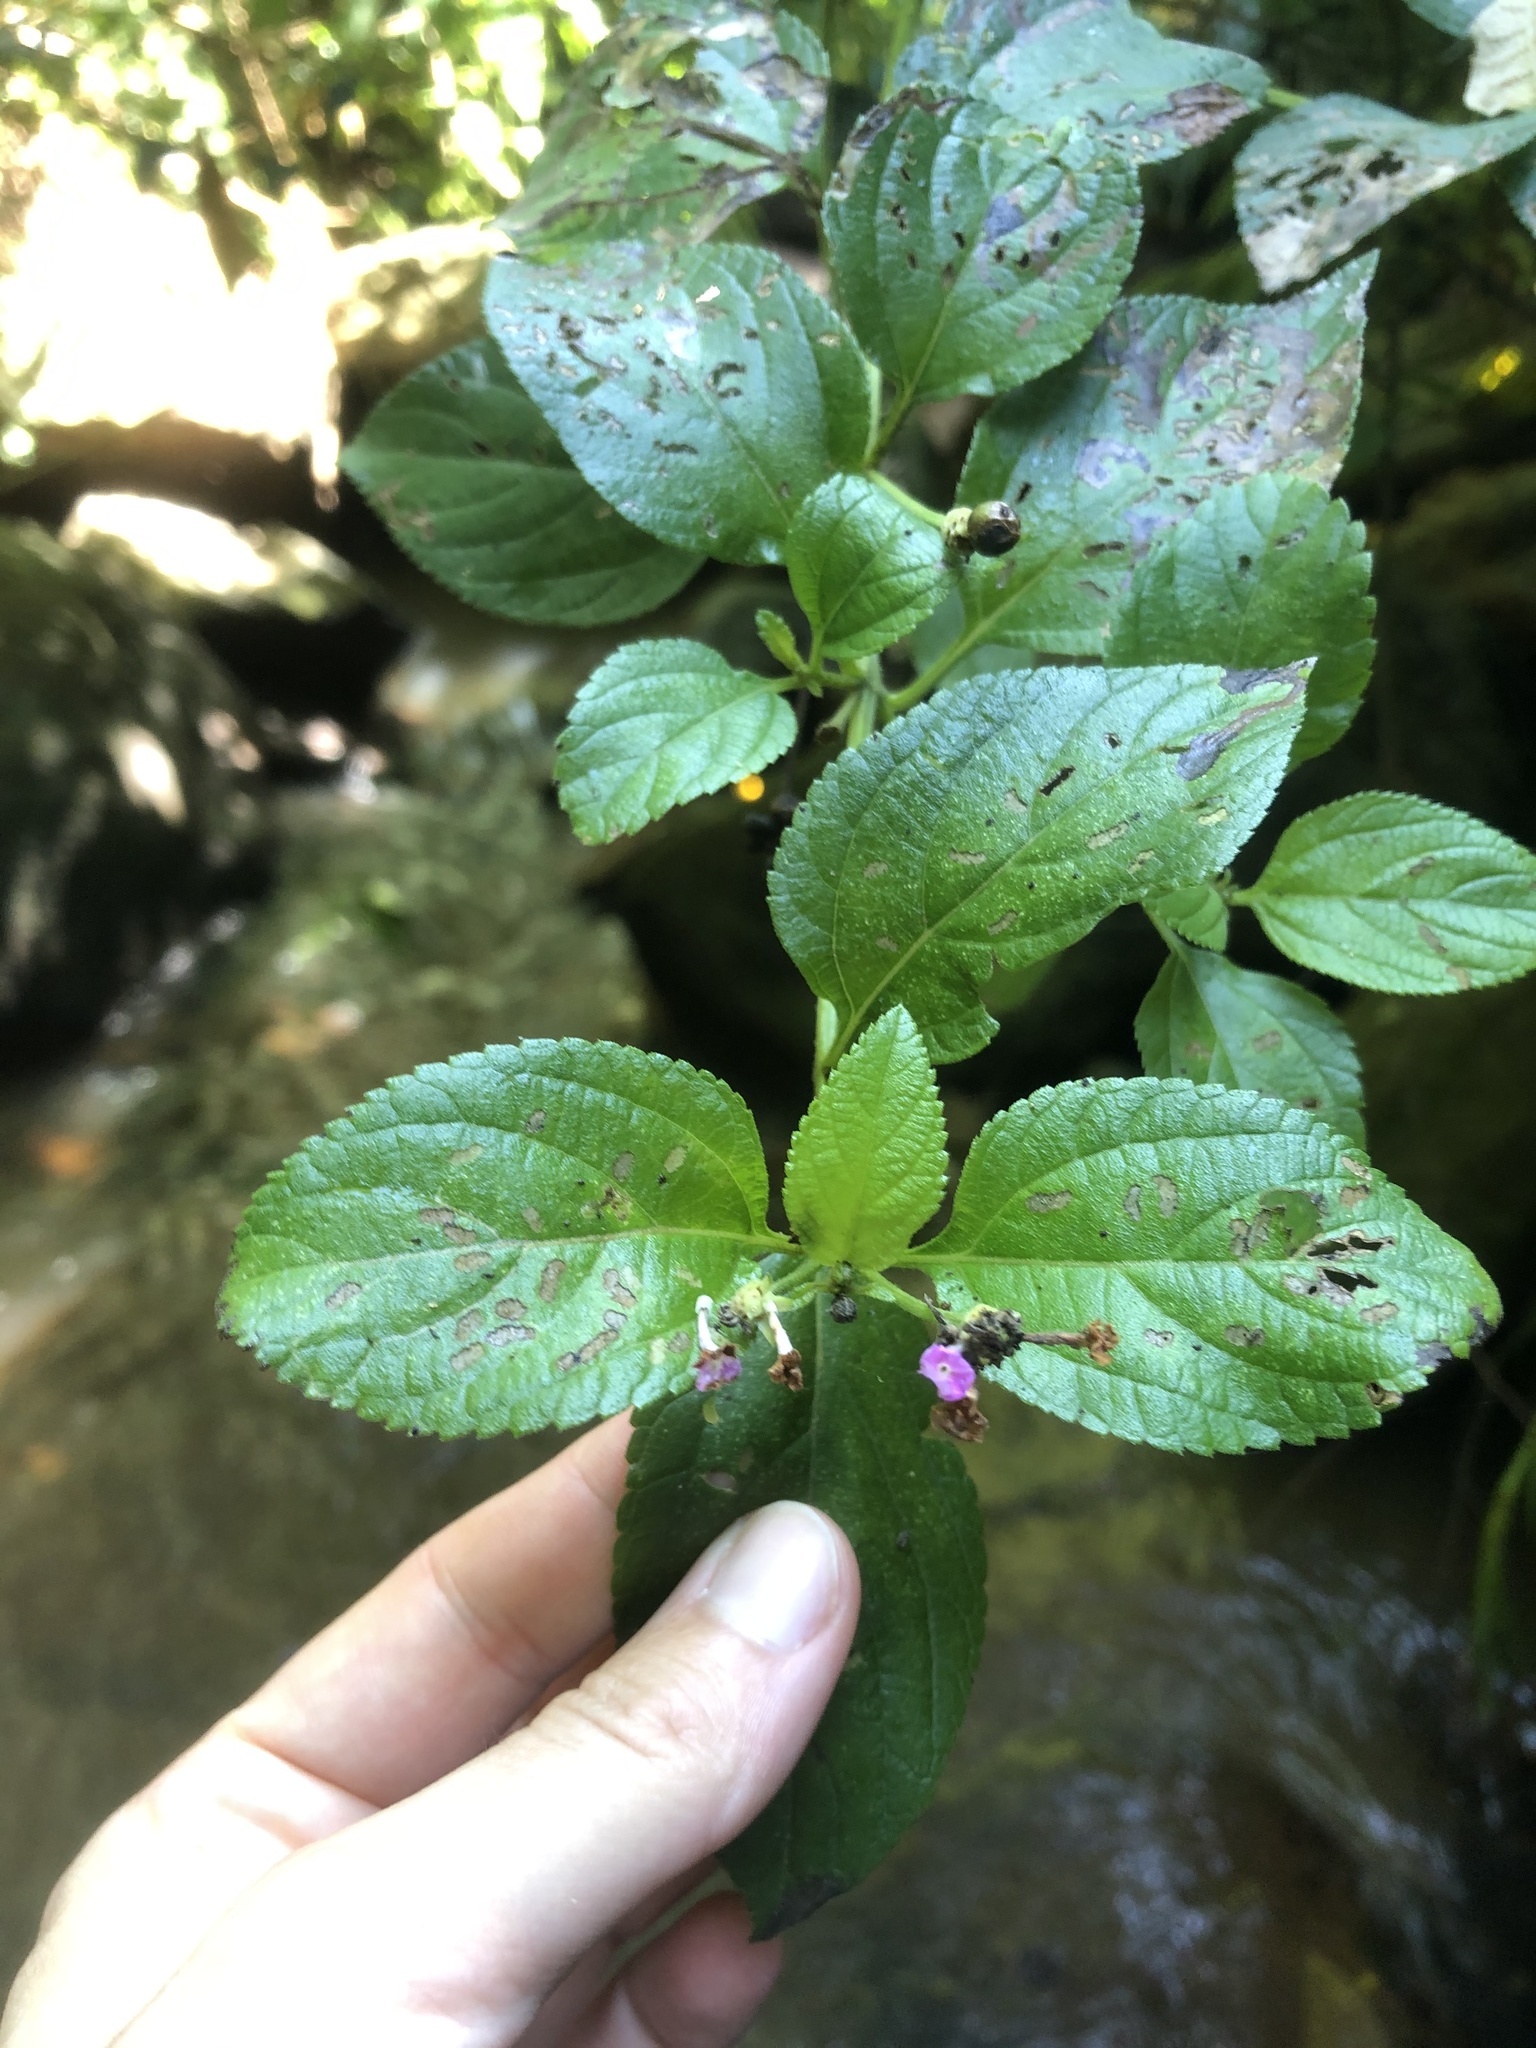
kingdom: Plantae
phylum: Tracheophyta
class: Magnoliopsida
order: Lamiales
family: Verbenaceae
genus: Lantana
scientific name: Lantana camara
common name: Lantana
